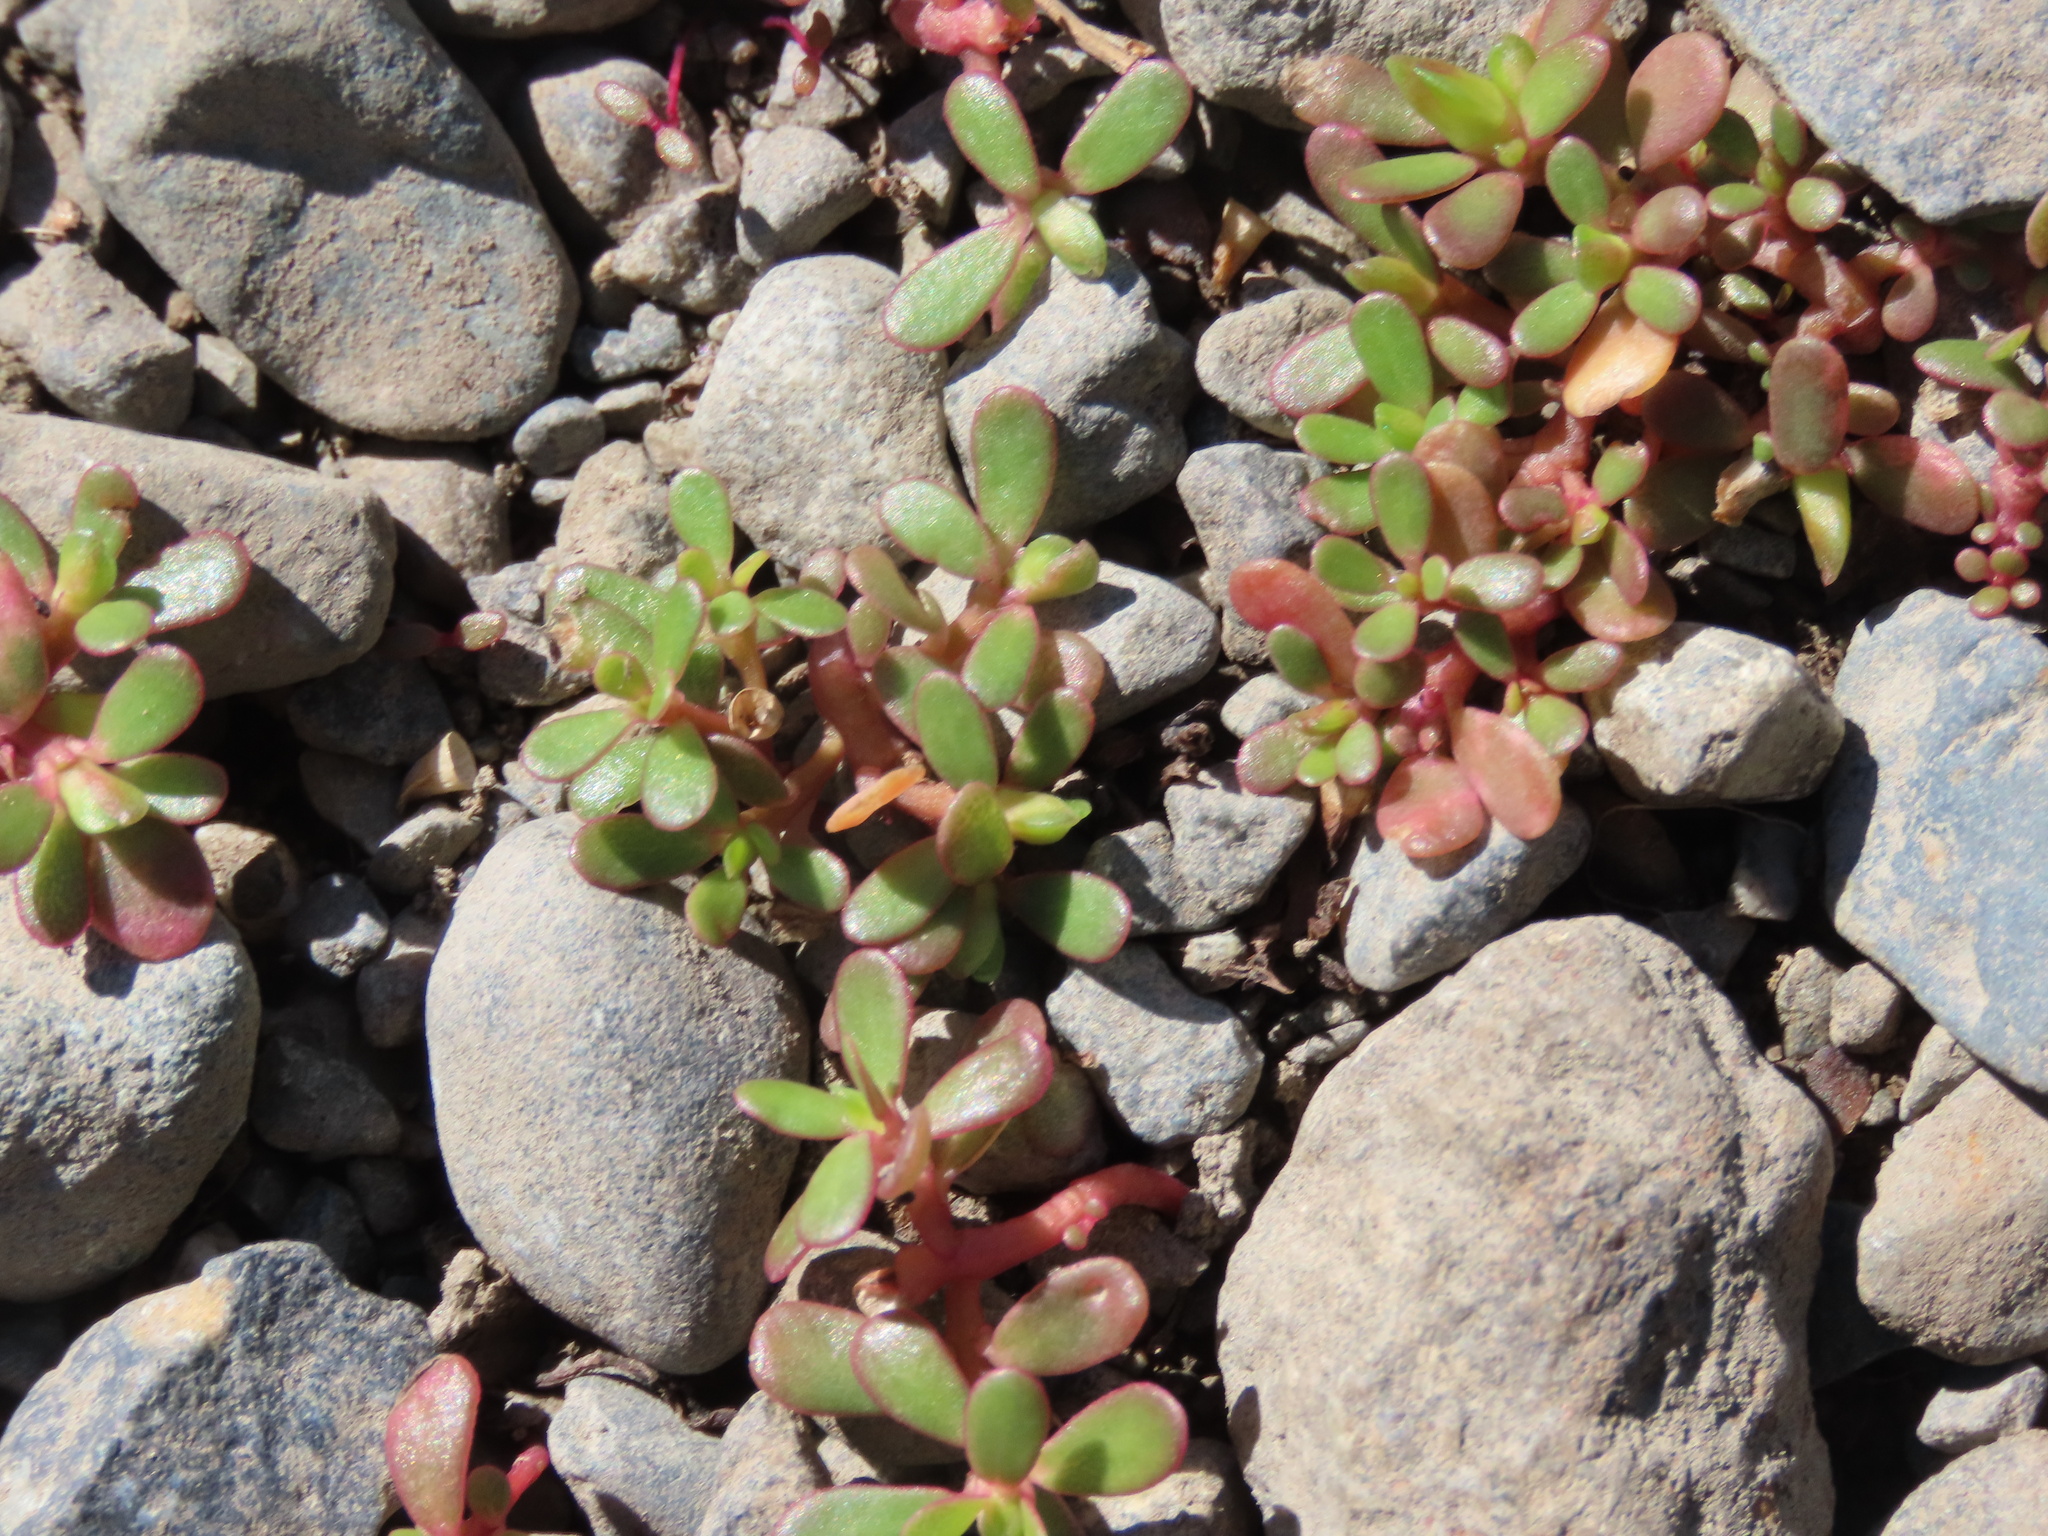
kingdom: Plantae
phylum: Tracheophyta
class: Magnoliopsida
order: Caryophyllales
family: Portulacaceae
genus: Portulaca
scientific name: Portulaca oleracea
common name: Common purslane
